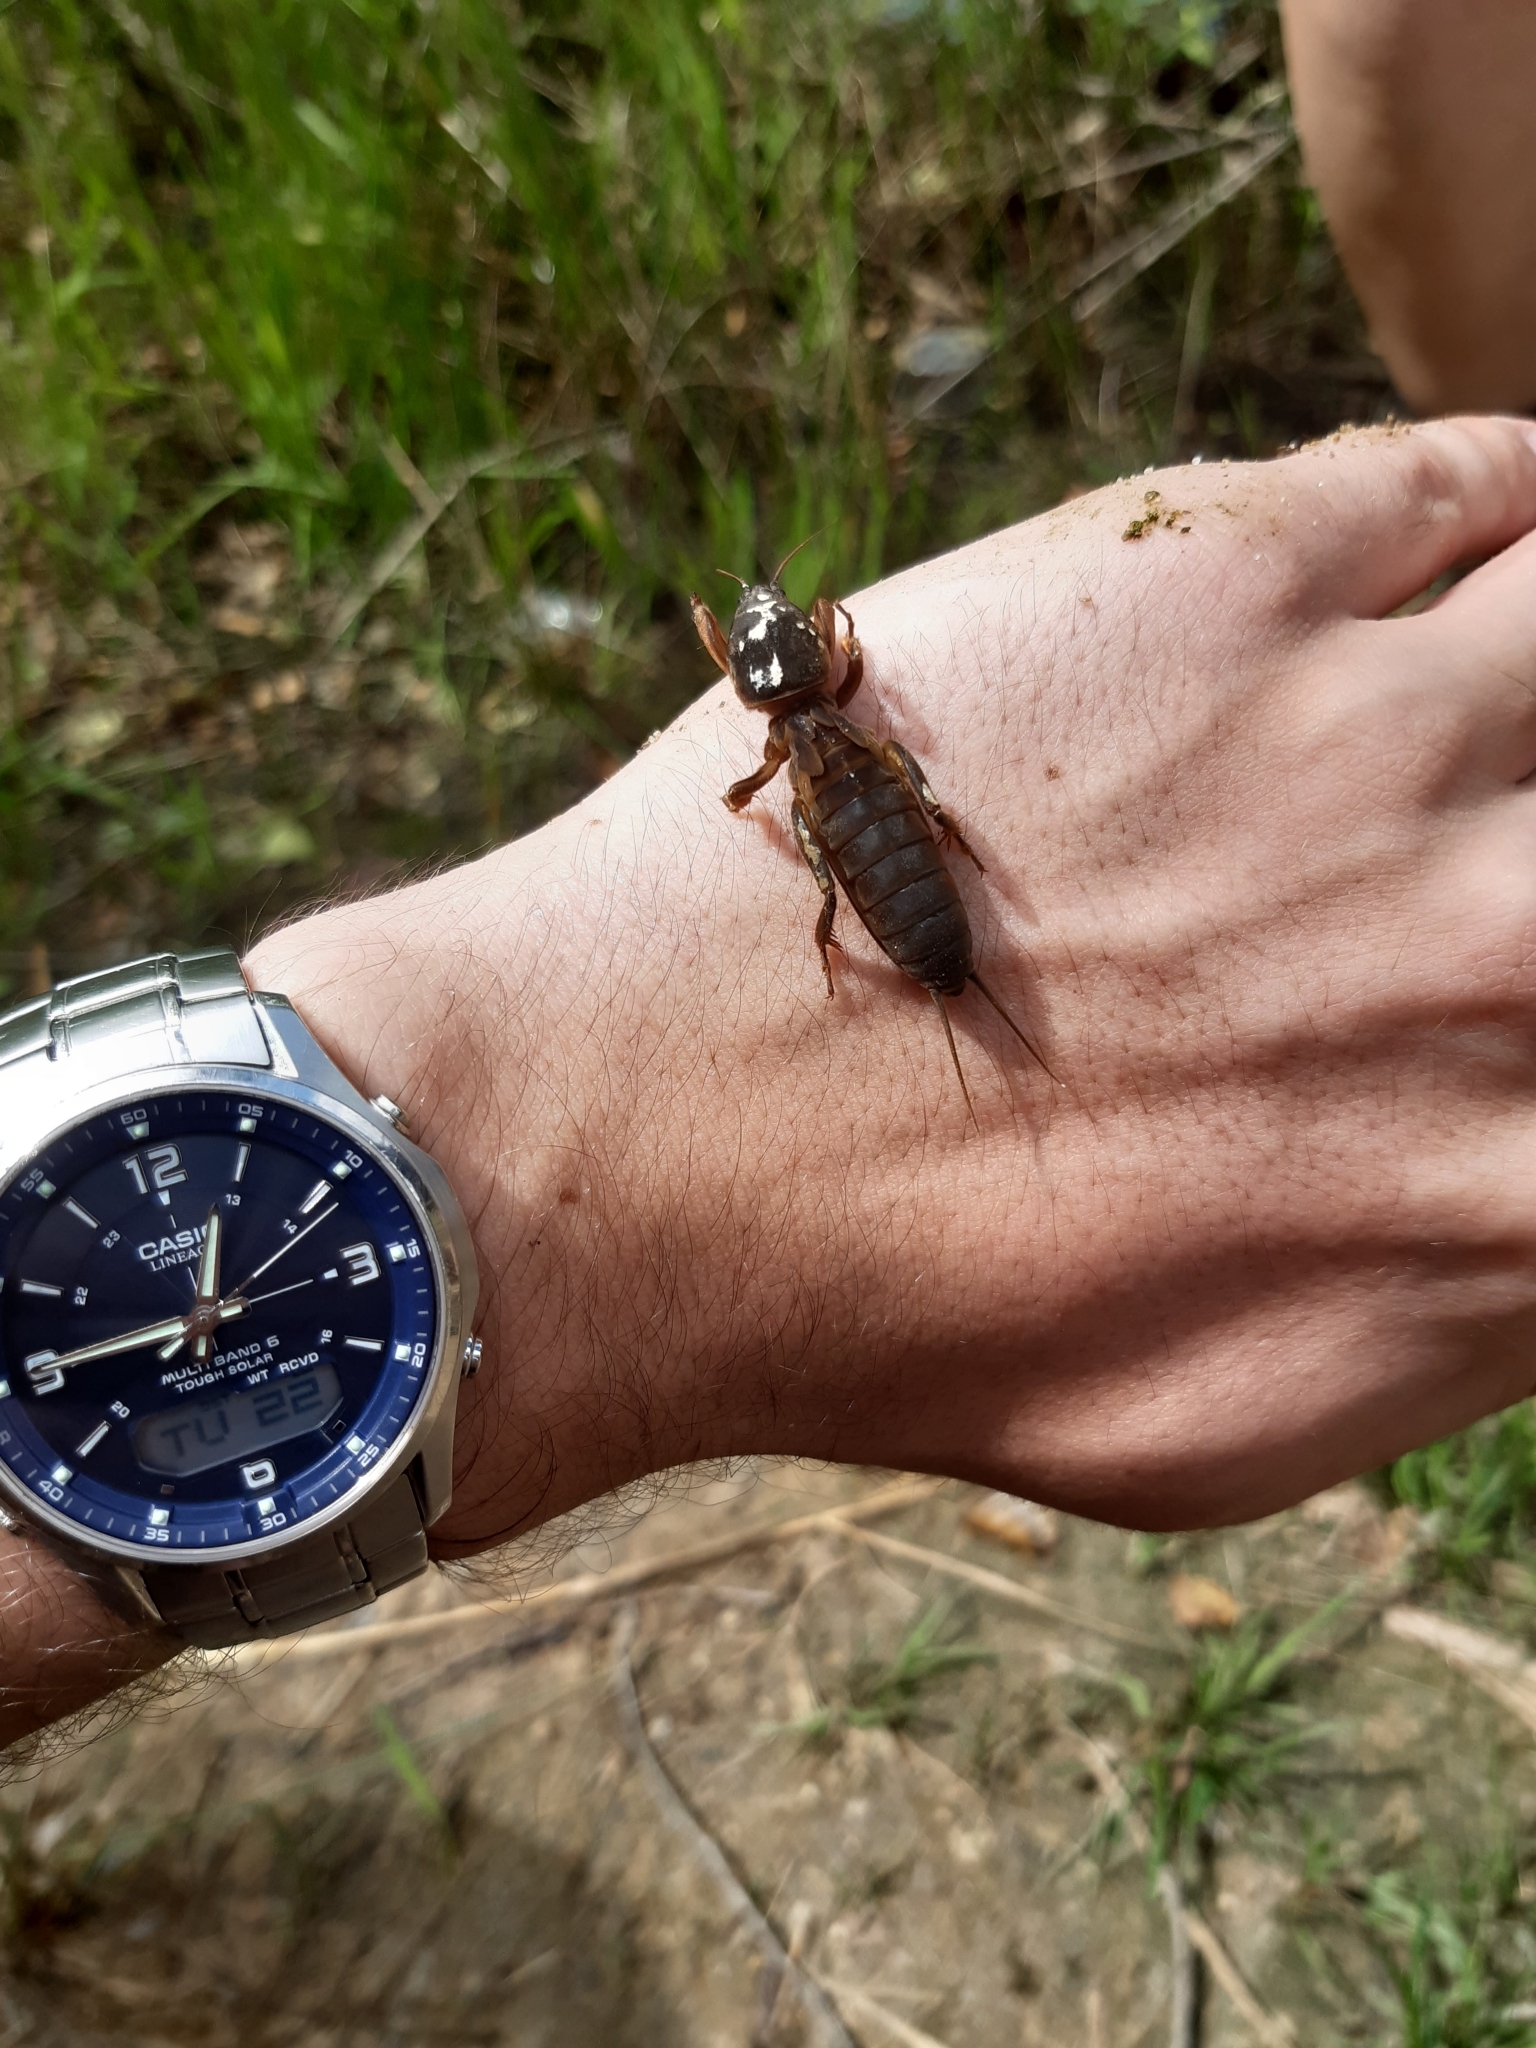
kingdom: Animalia
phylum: Arthropoda
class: Insecta
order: Orthoptera
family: Gryllotalpidae
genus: Gryllotalpa
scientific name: Gryllotalpa gryllotalpa
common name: European mole cricket
